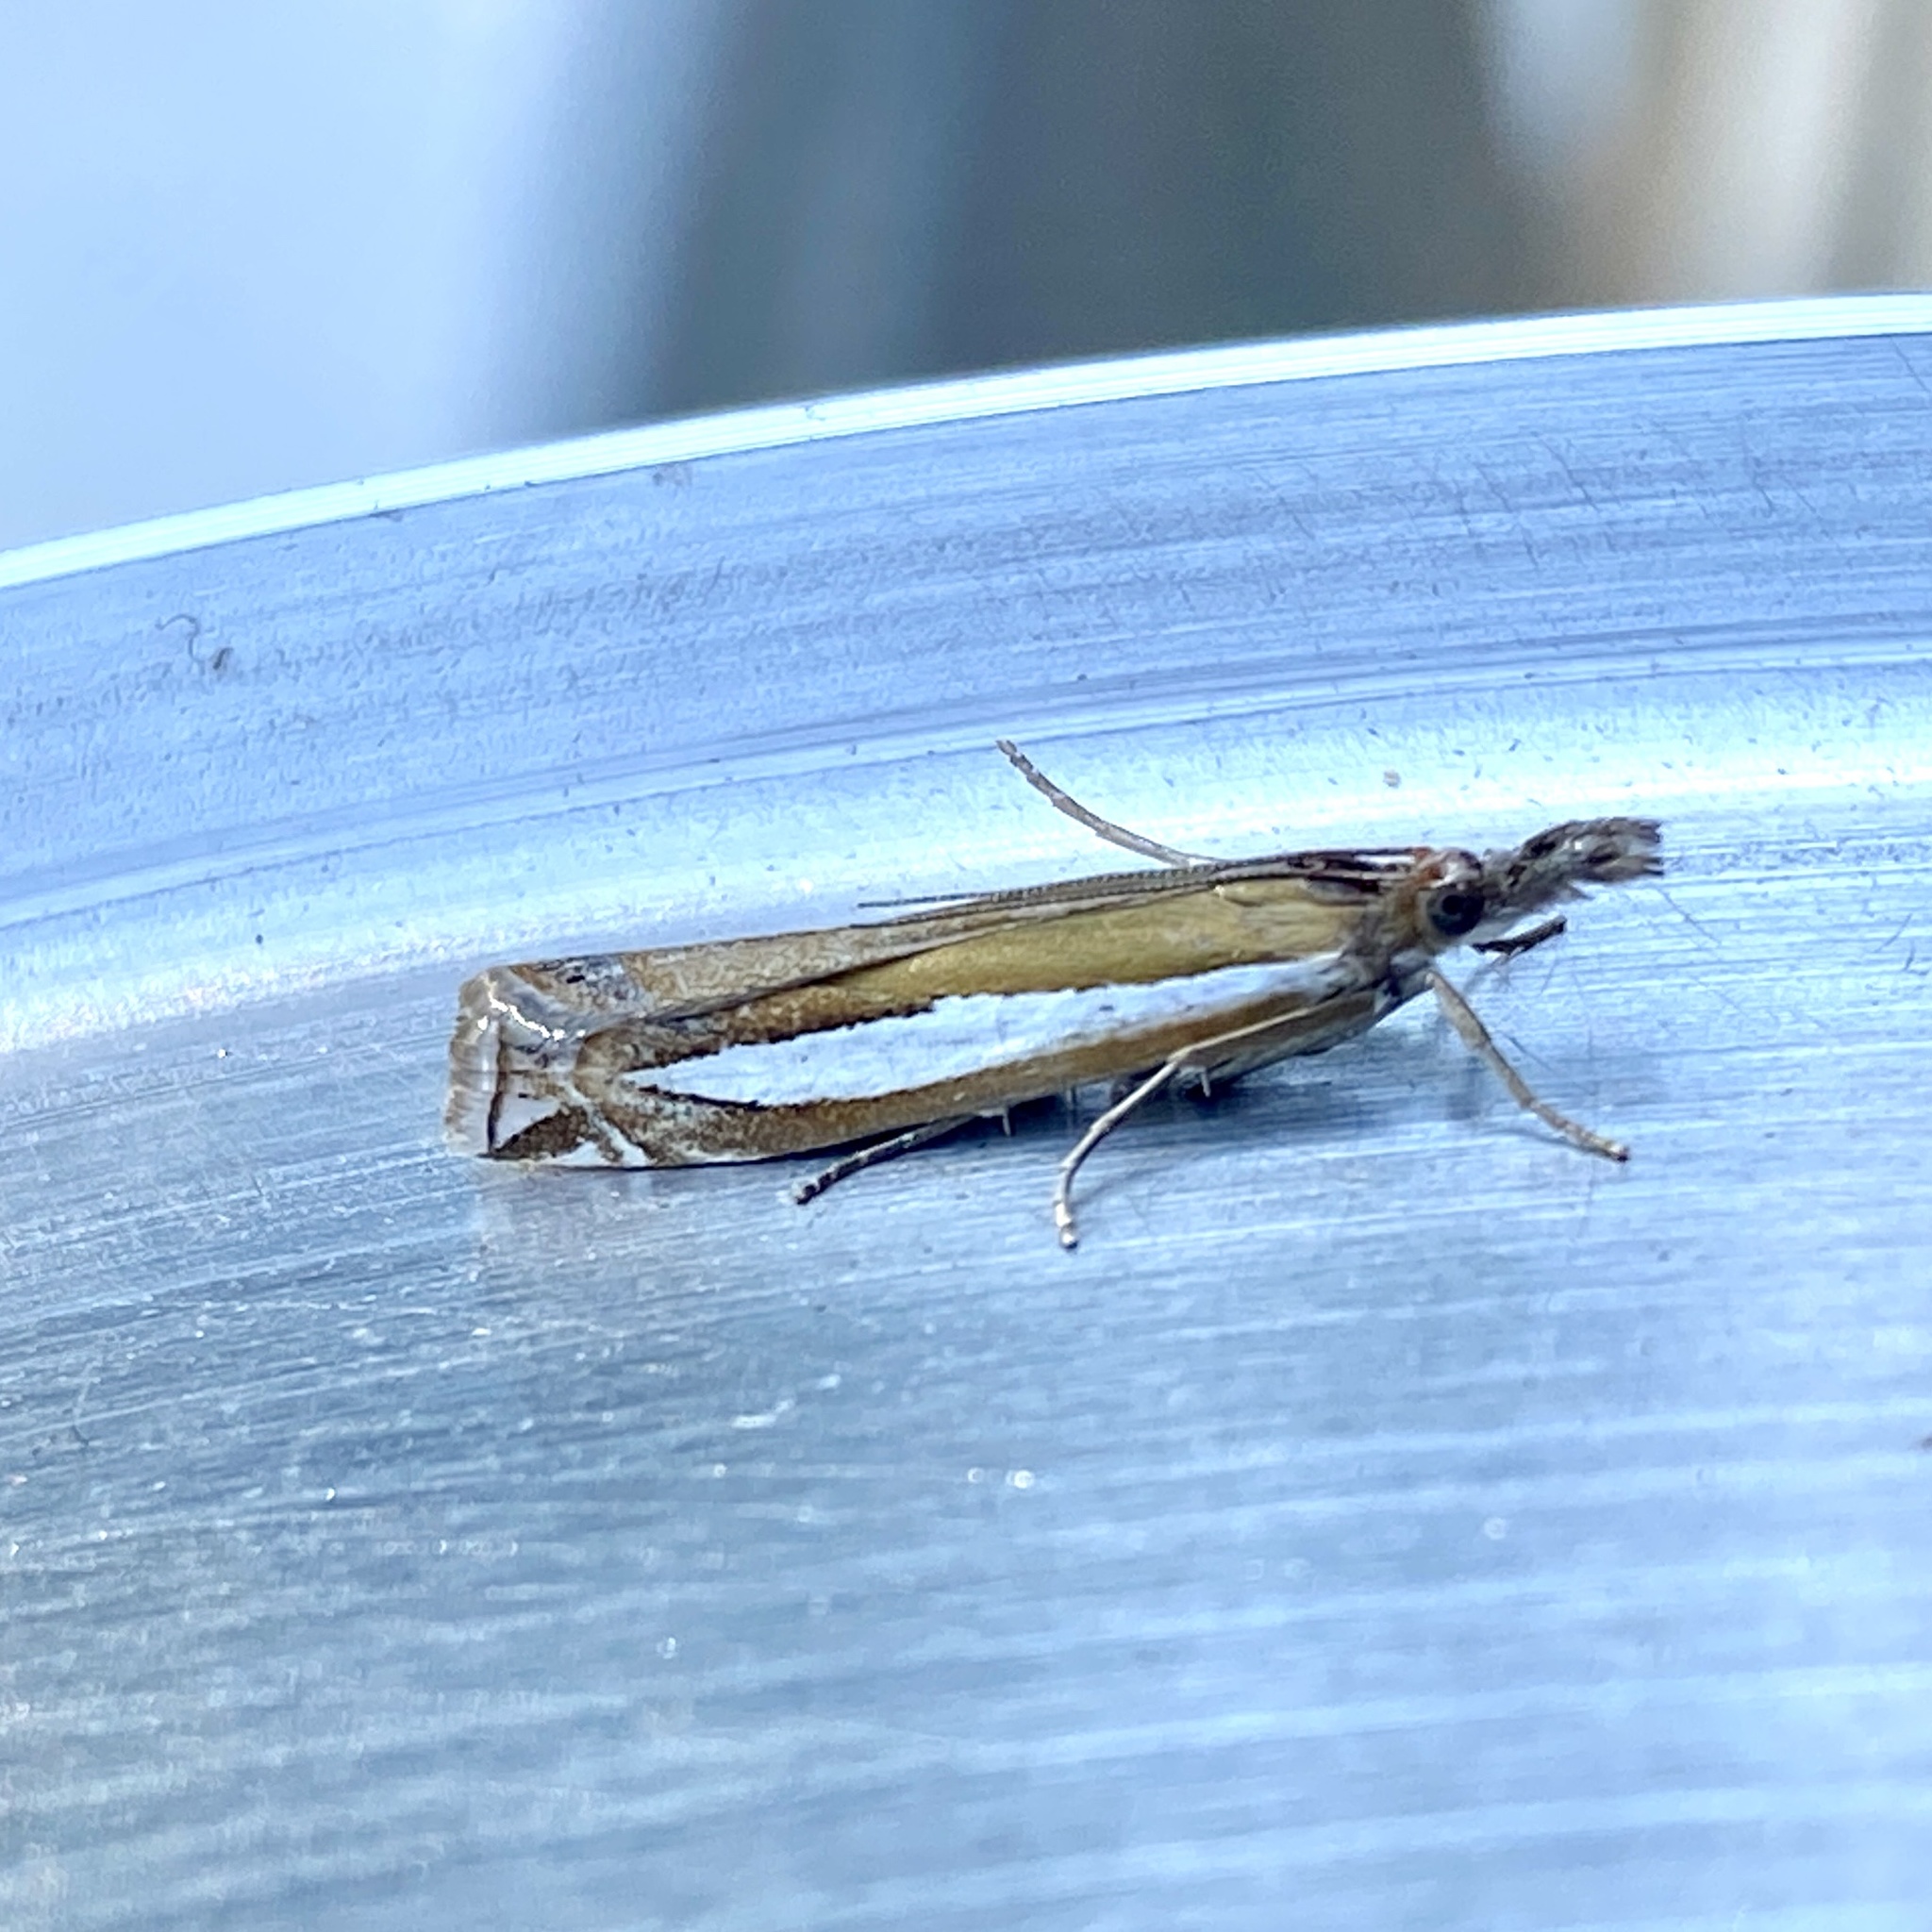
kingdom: Animalia
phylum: Arthropoda
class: Insecta
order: Lepidoptera
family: Crambidae
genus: Crambus
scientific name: Crambus praefectellus
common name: Common grass-veneer
